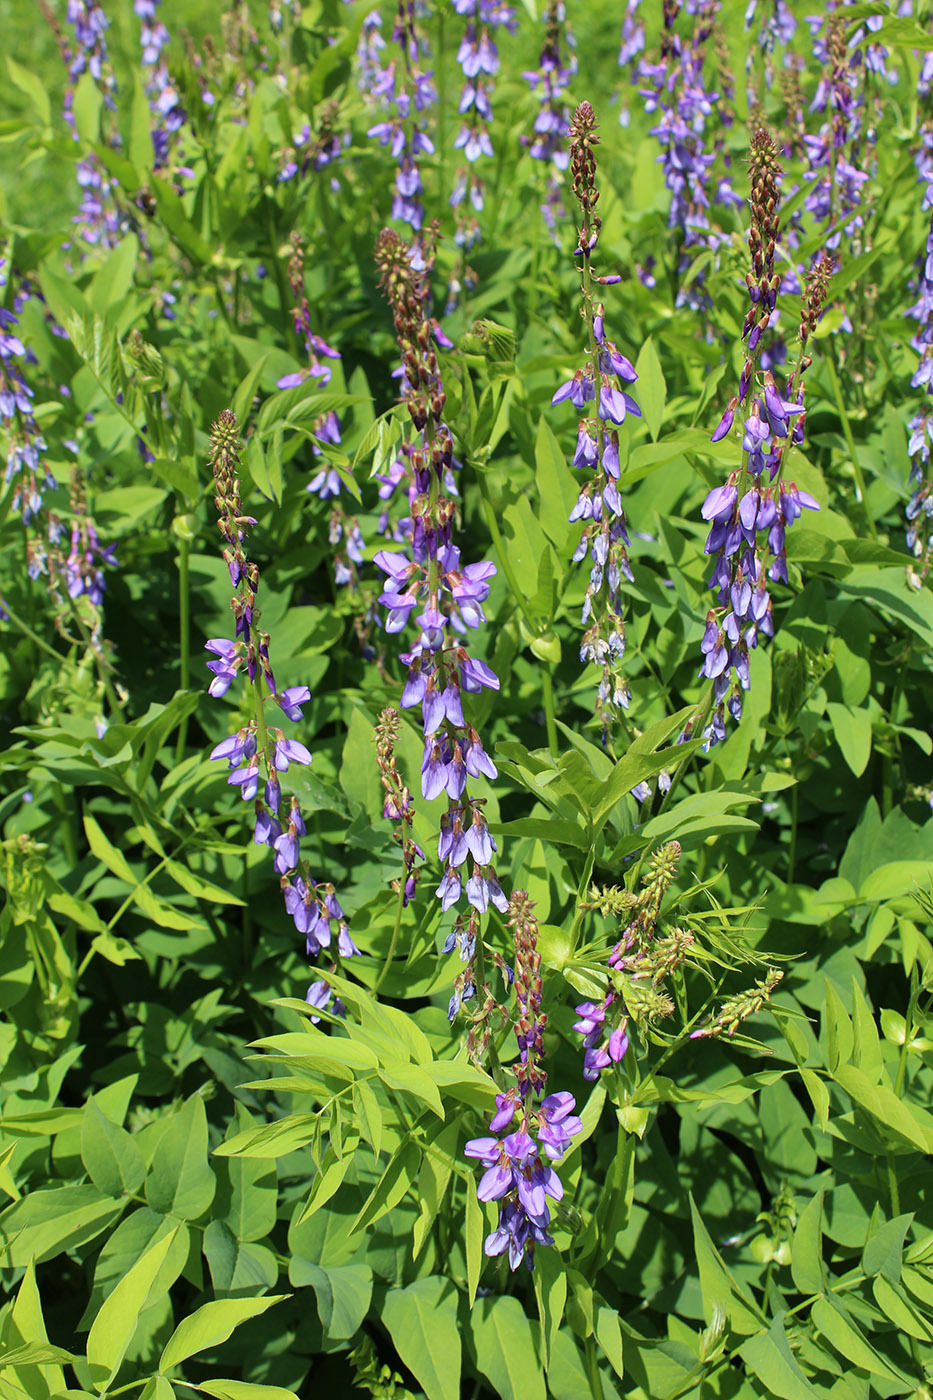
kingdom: Plantae
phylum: Tracheophyta
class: Magnoliopsida
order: Fabales
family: Fabaceae
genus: Galega
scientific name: Galega orientalis
